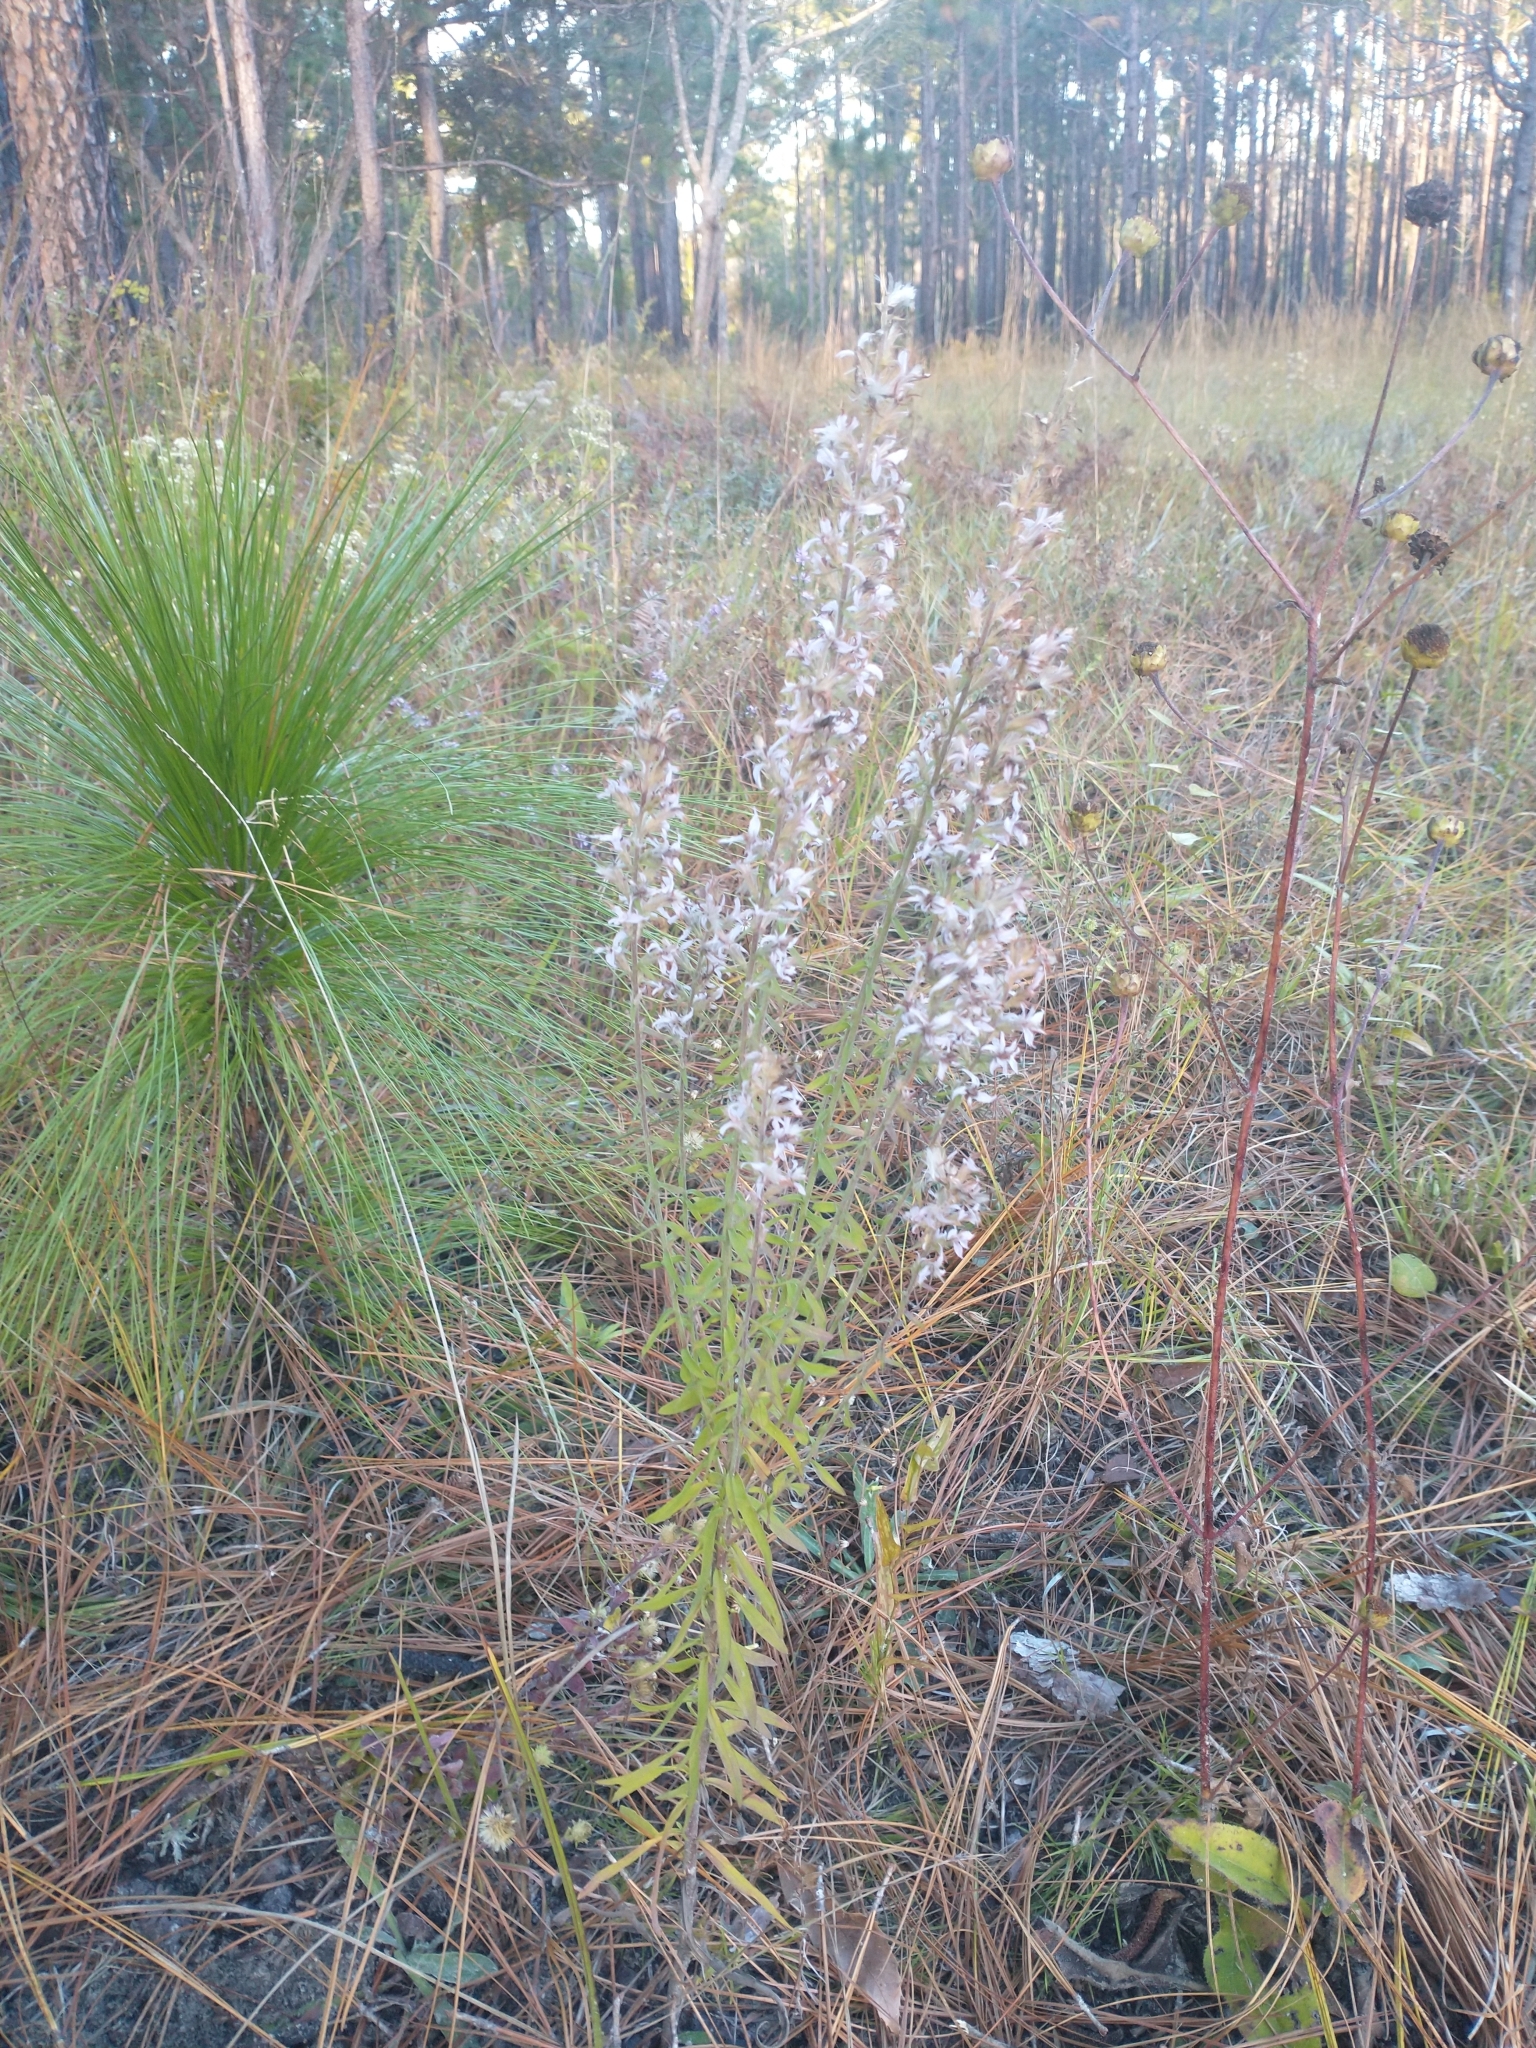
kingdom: Plantae
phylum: Tracheophyta
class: Magnoliopsida
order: Asterales
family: Asteraceae
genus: Liatris
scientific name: Liatris elegans
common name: Pinkscale gayfeather
